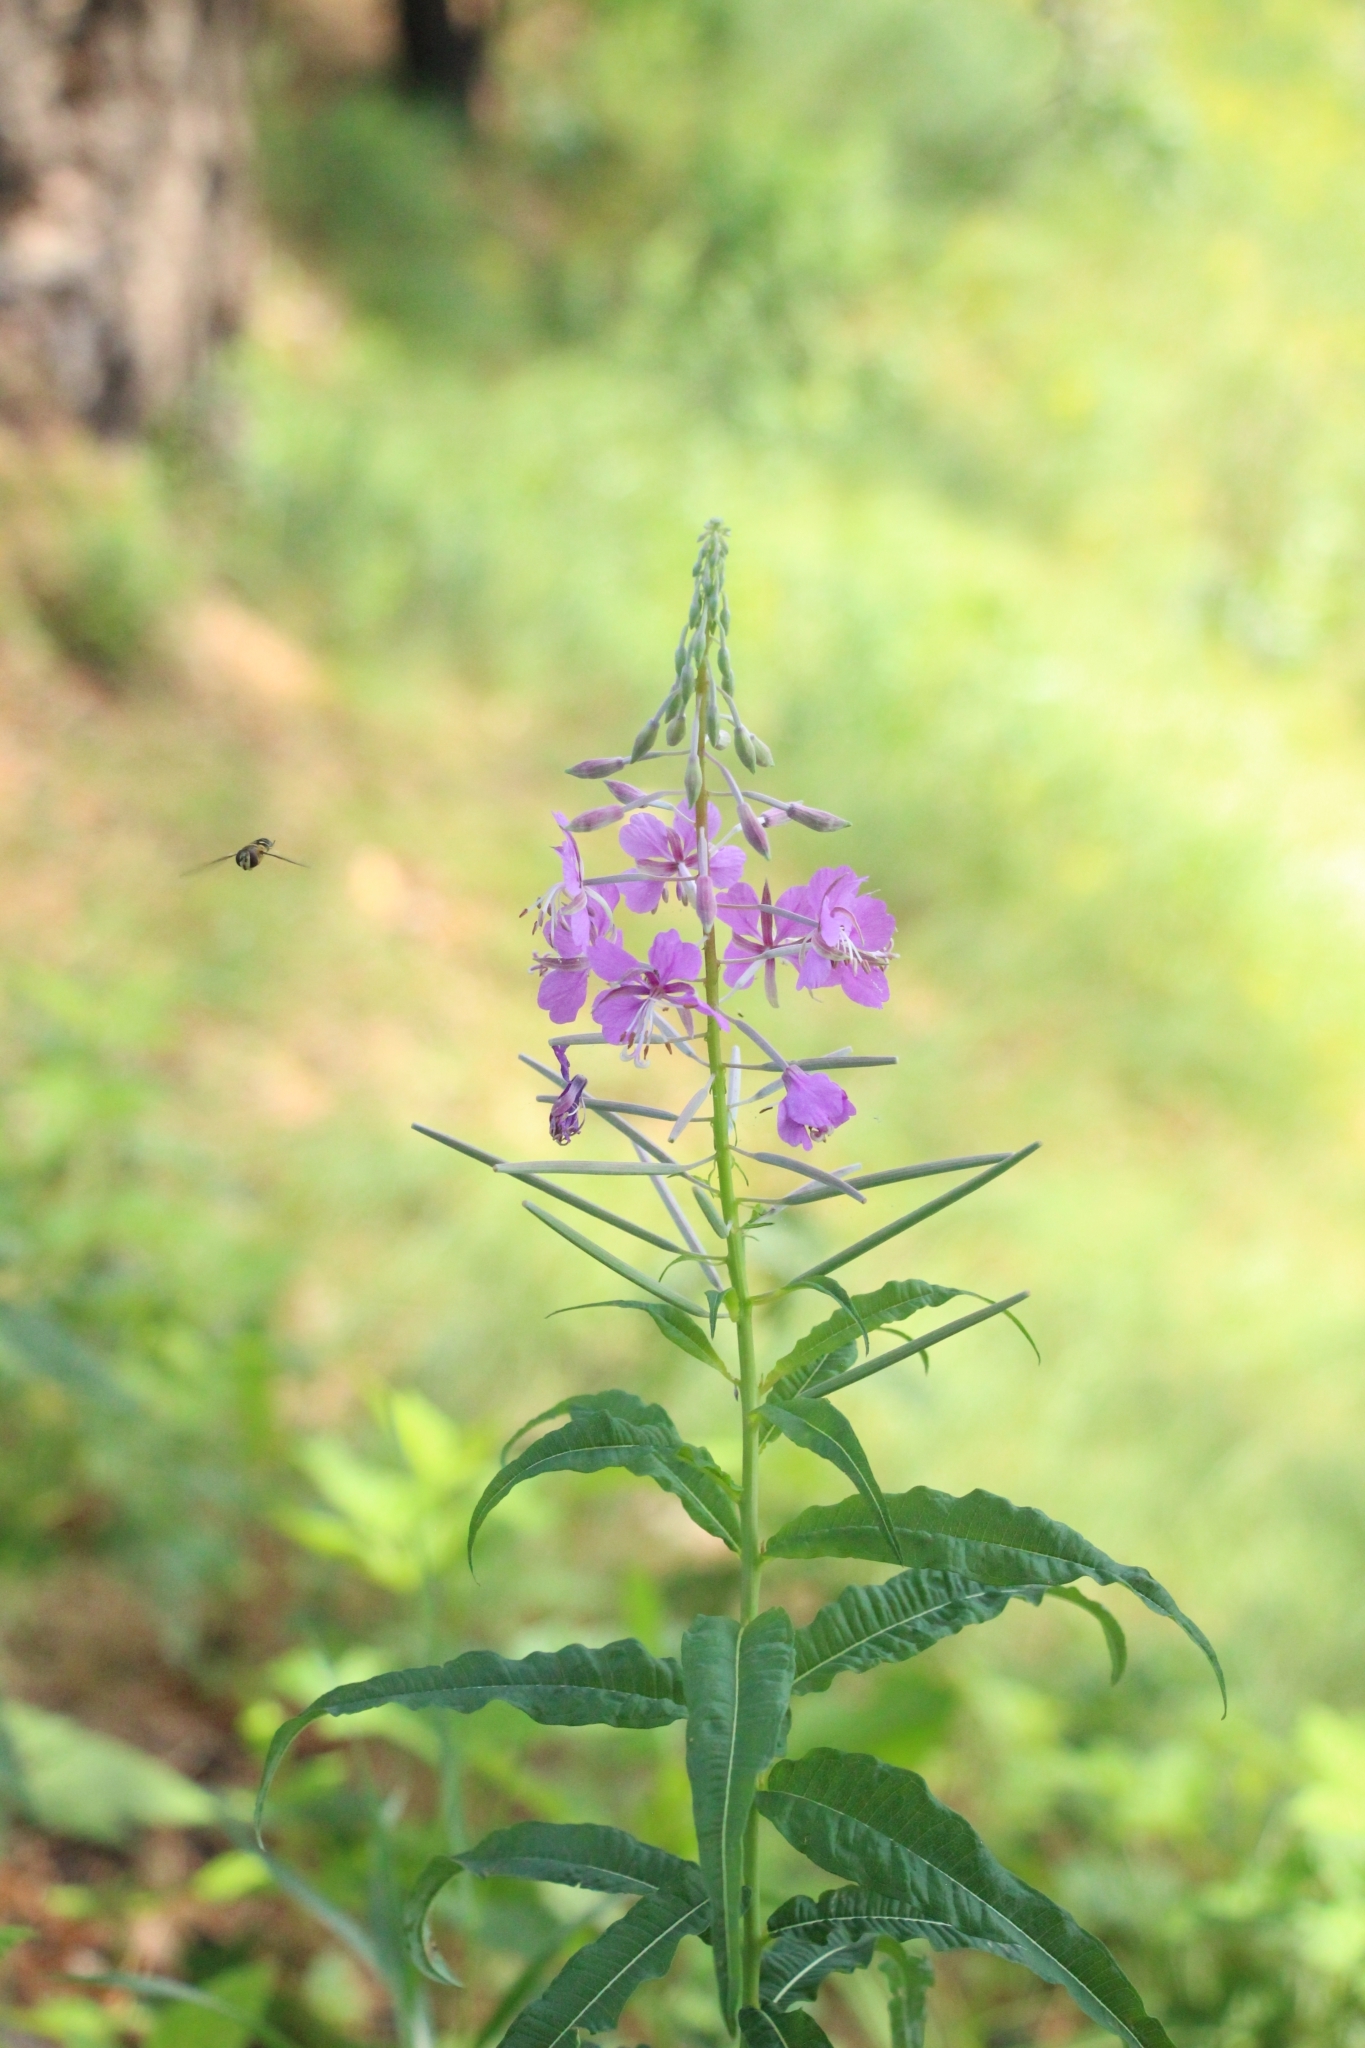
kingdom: Plantae
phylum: Tracheophyta
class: Magnoliopsida
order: Myrtales
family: Onagraceae
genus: Chamaenerion
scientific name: Chamaenerion angustifolium
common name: Fireweed
